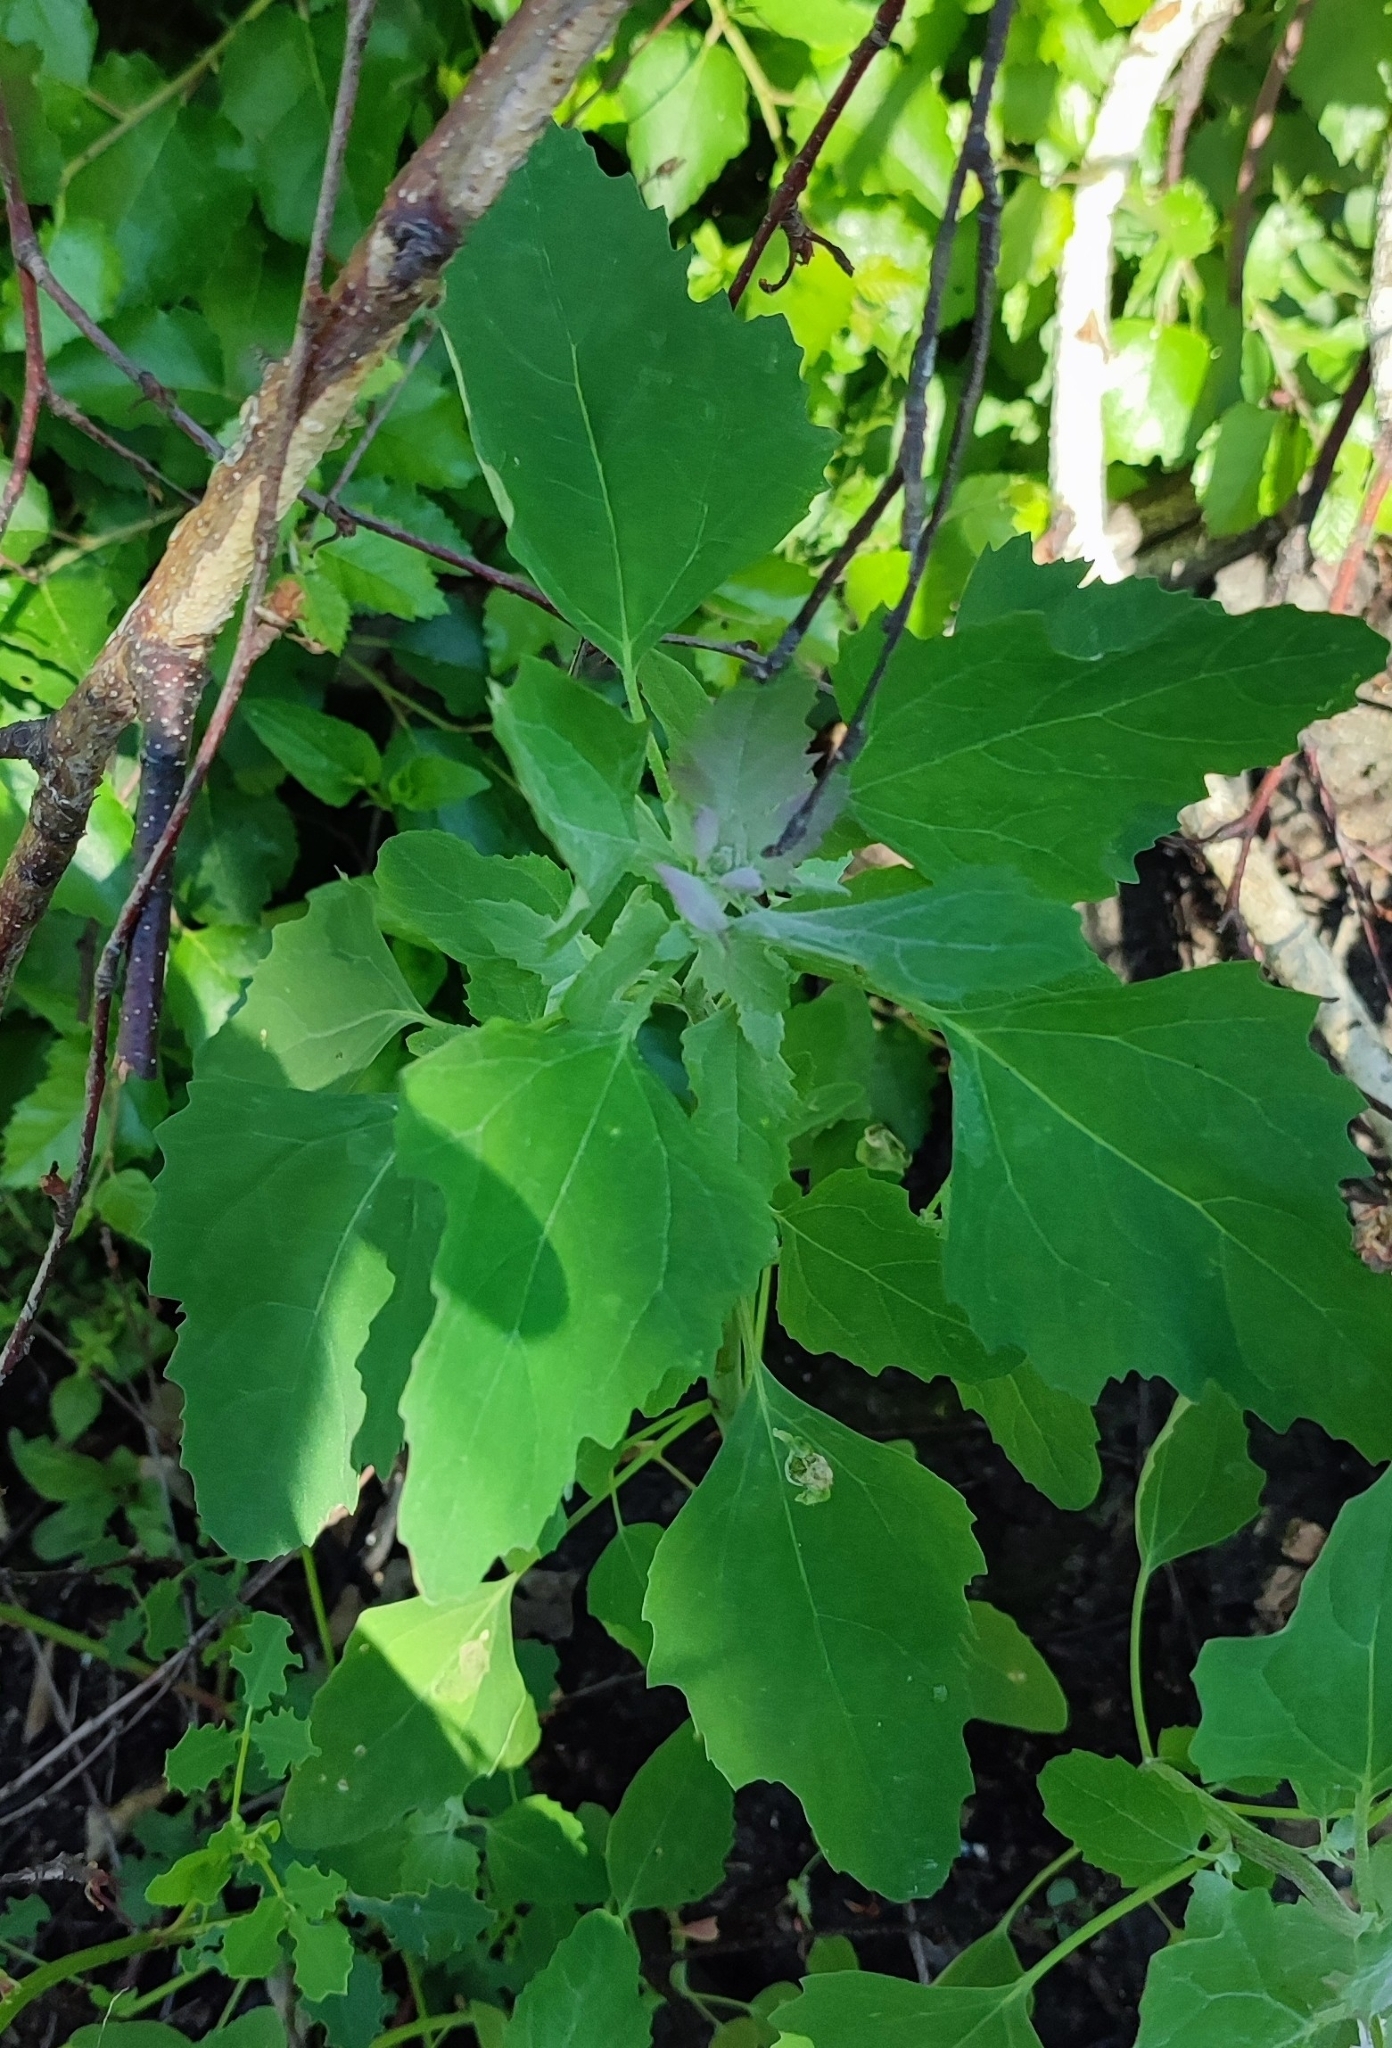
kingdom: Plantae
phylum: Tracheophyta
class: Magnoliopsida
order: Caryophyllales
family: Amaranthaceae
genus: Chenopodium
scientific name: Chenopodium album
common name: Fat-hen
